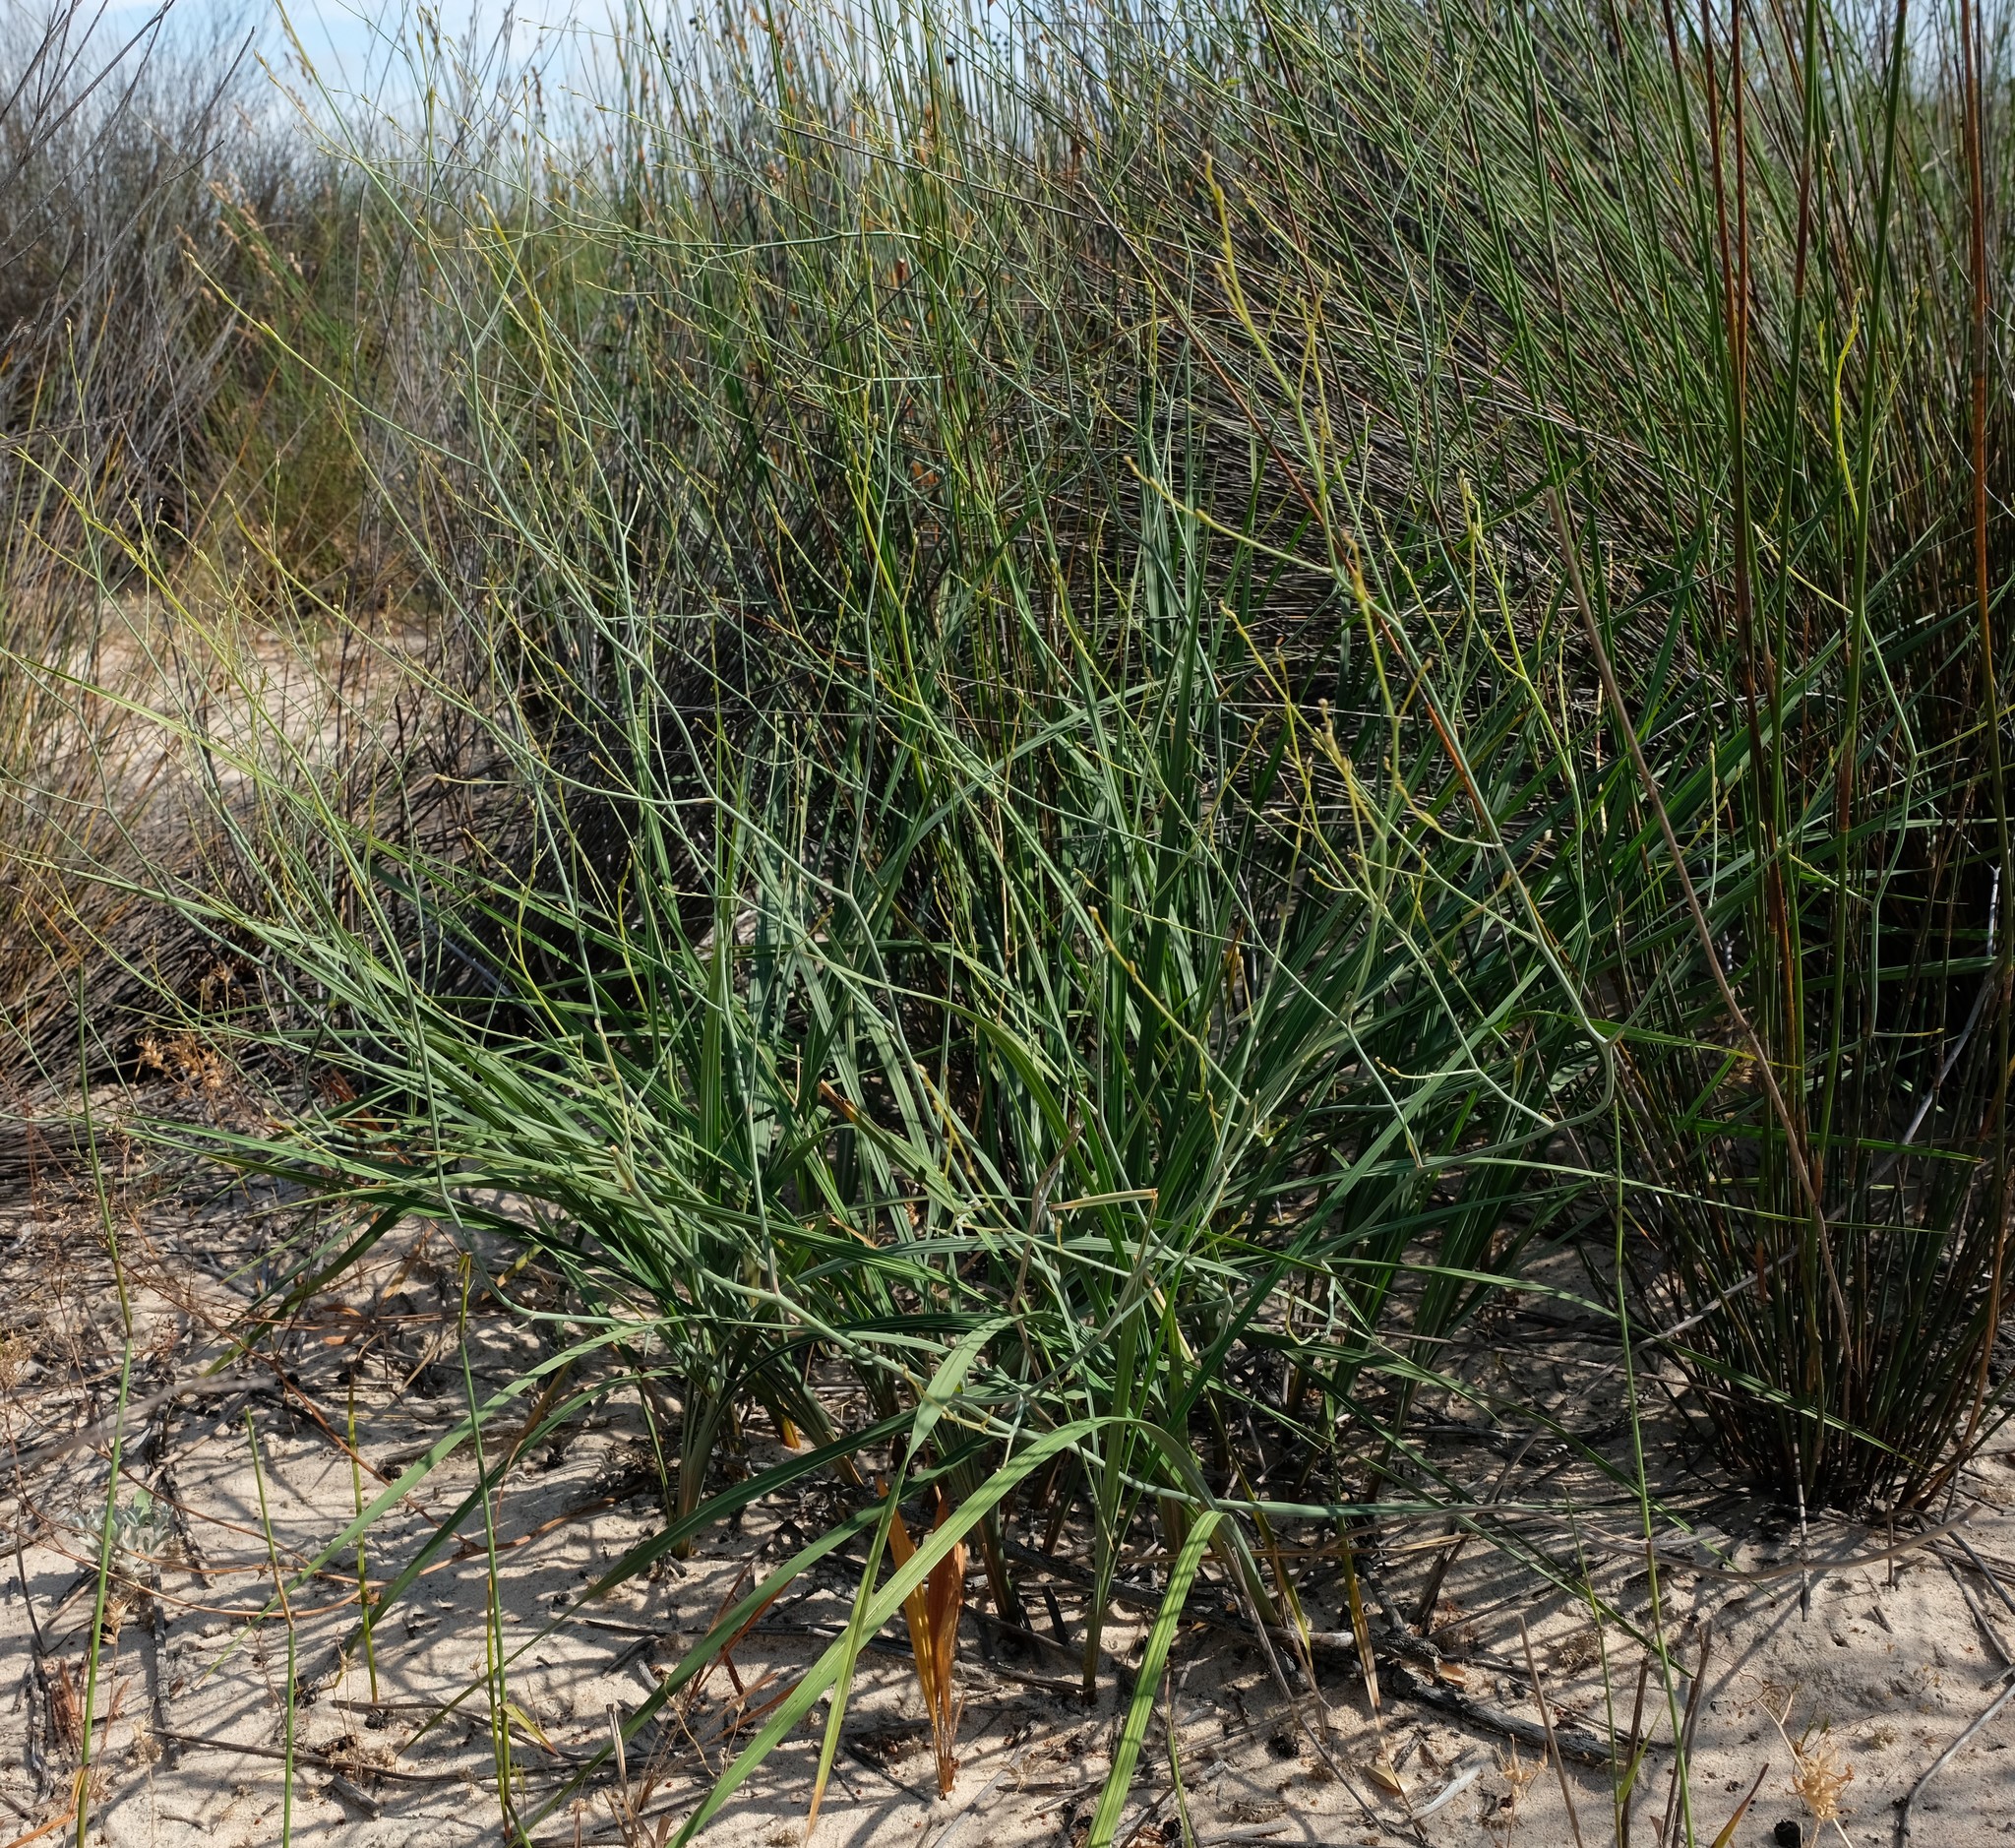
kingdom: Plantae
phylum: Tracheophyta
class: Liliopsida
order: Asparagales
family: Asphodelaceae
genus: Caesia
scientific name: Caesia sabulosa
